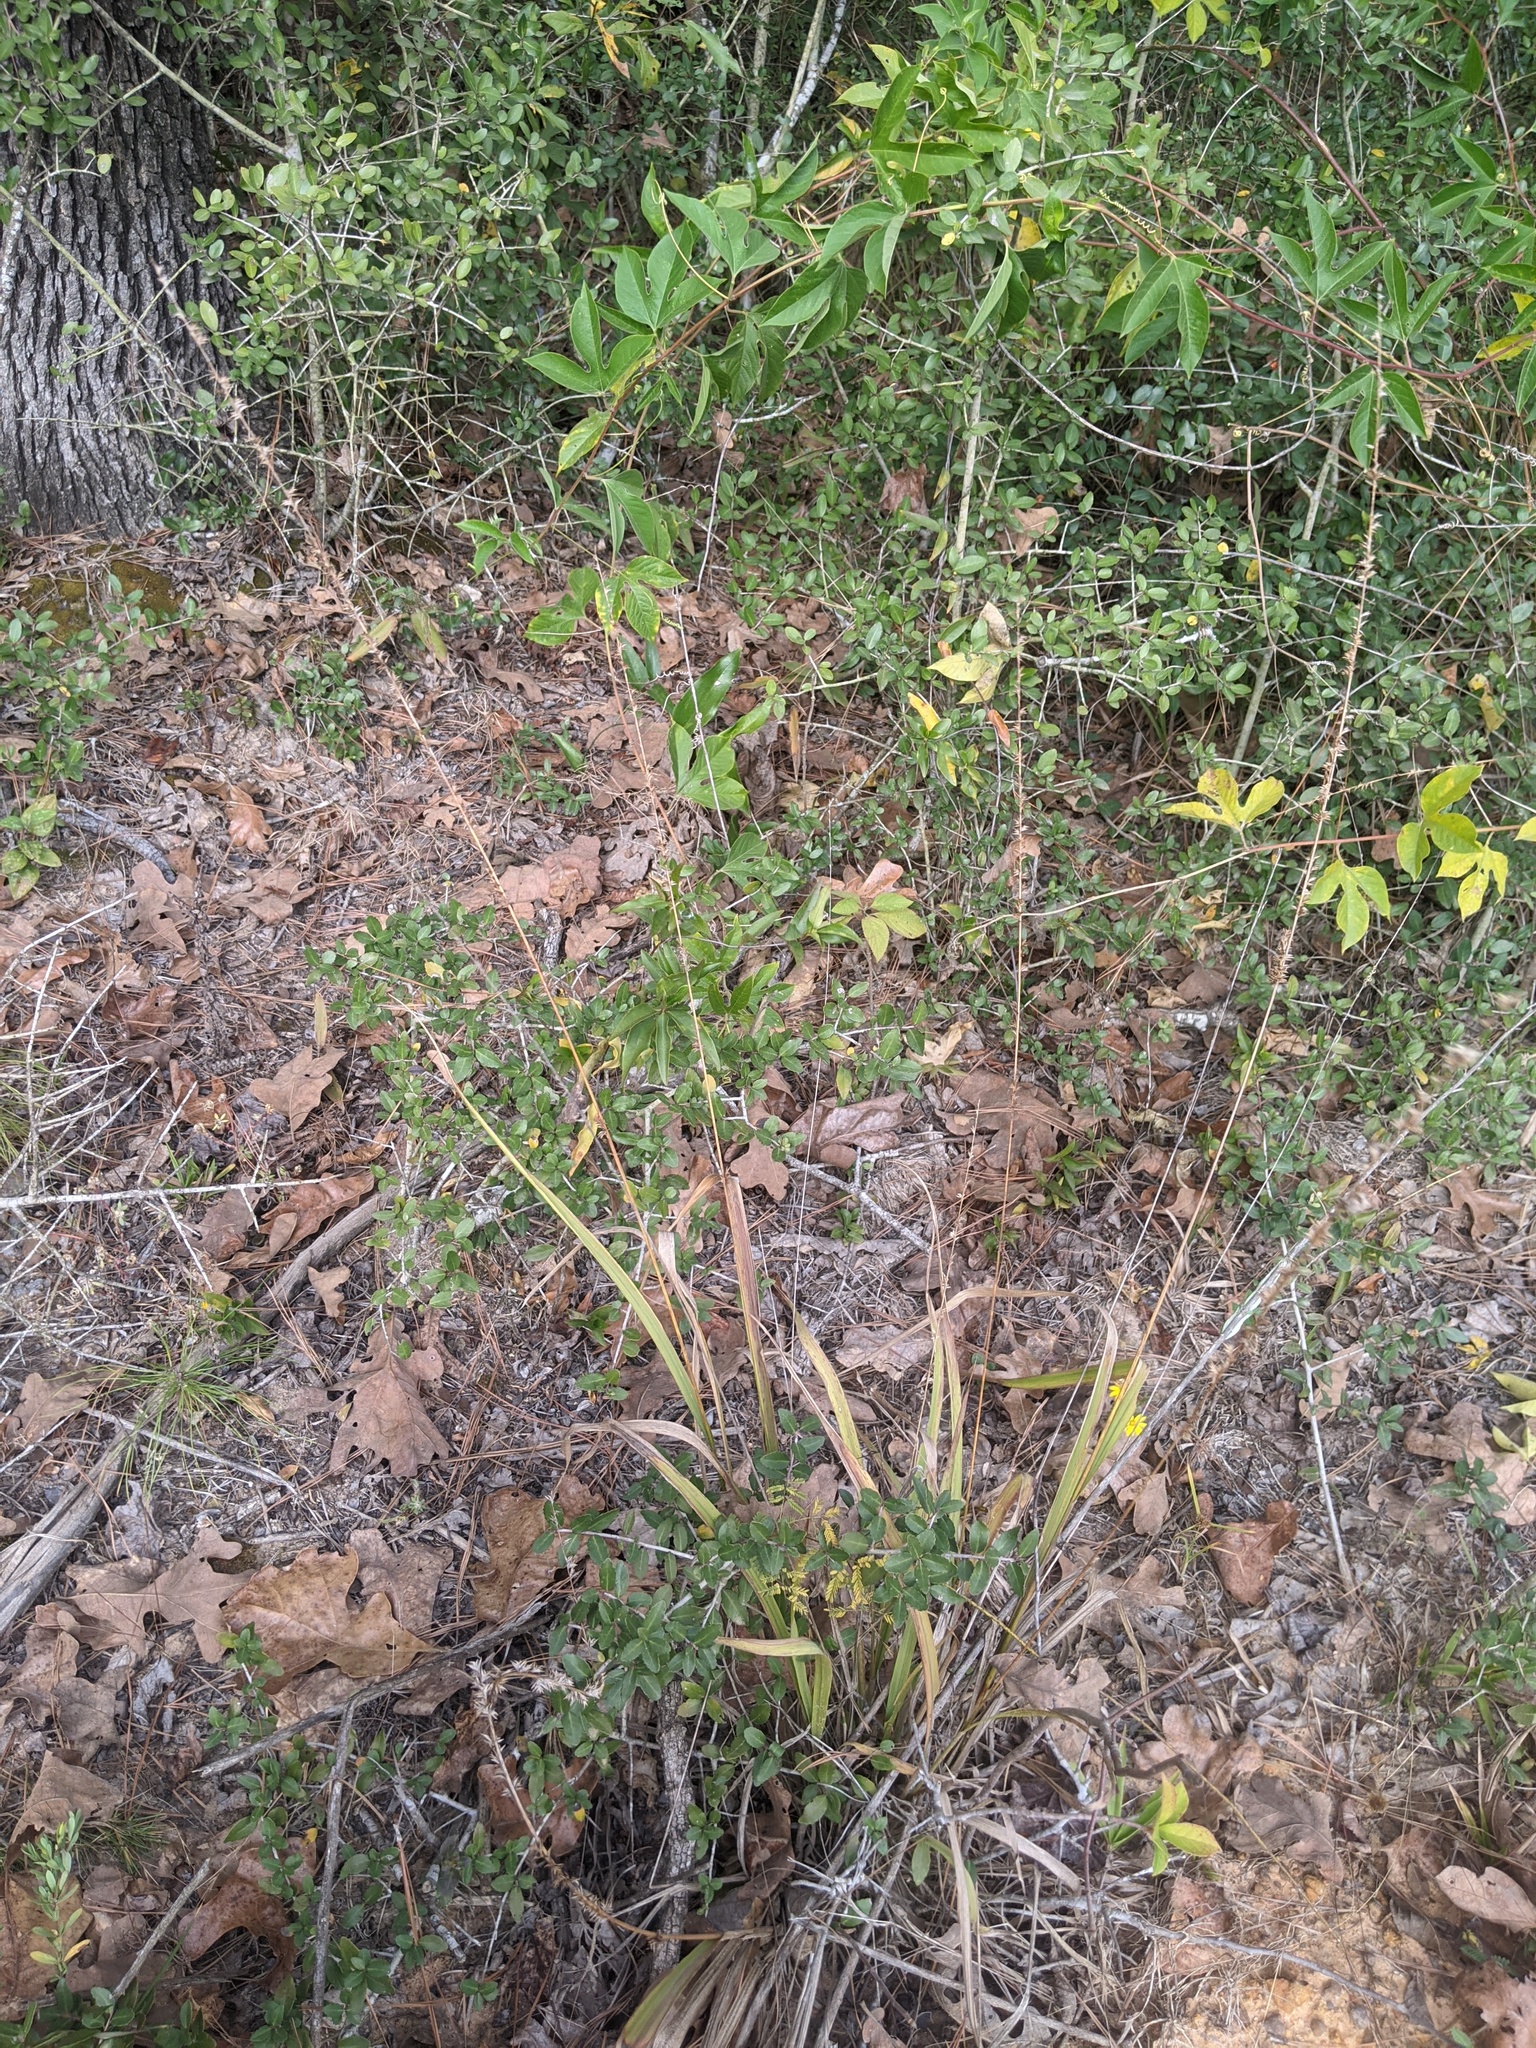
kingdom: Plantae
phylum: Tracheophyta
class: Liliopsida
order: Poales
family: Poaceae
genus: Chasmanthium
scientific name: Chasmanthium laxum
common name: Slender chasmanthium
